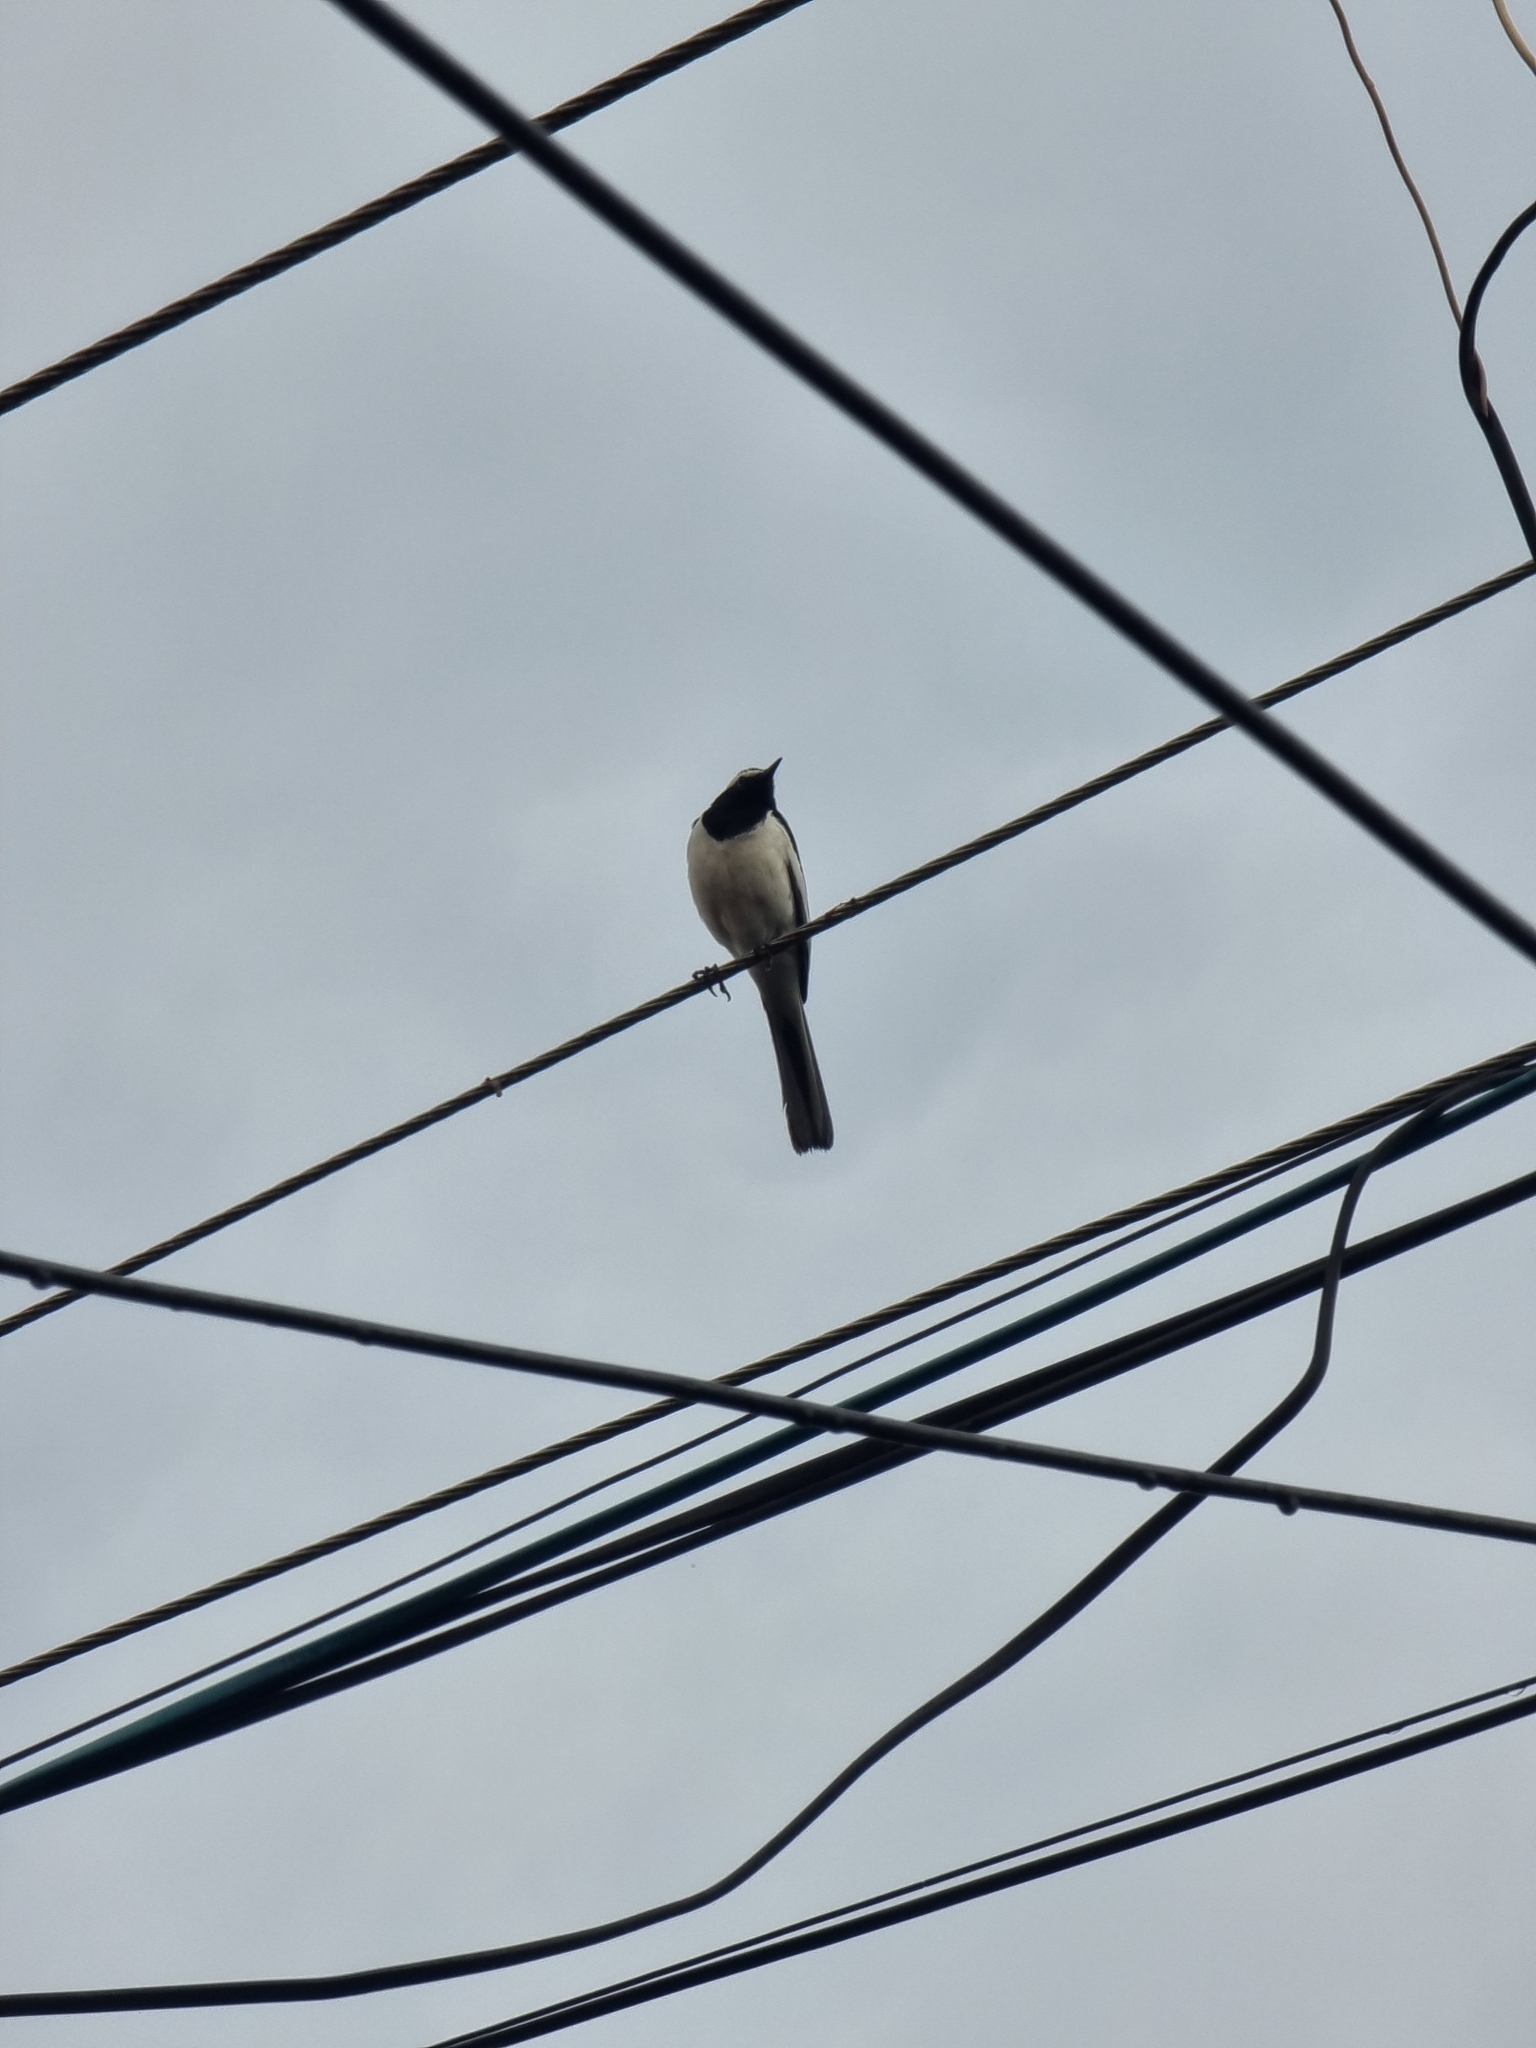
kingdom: Animalia
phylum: Chordata
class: Aves
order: Passeriformes
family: Motacillidae
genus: Motacilla
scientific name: Motacilla maderaspatensis
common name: White-browed wagtail
